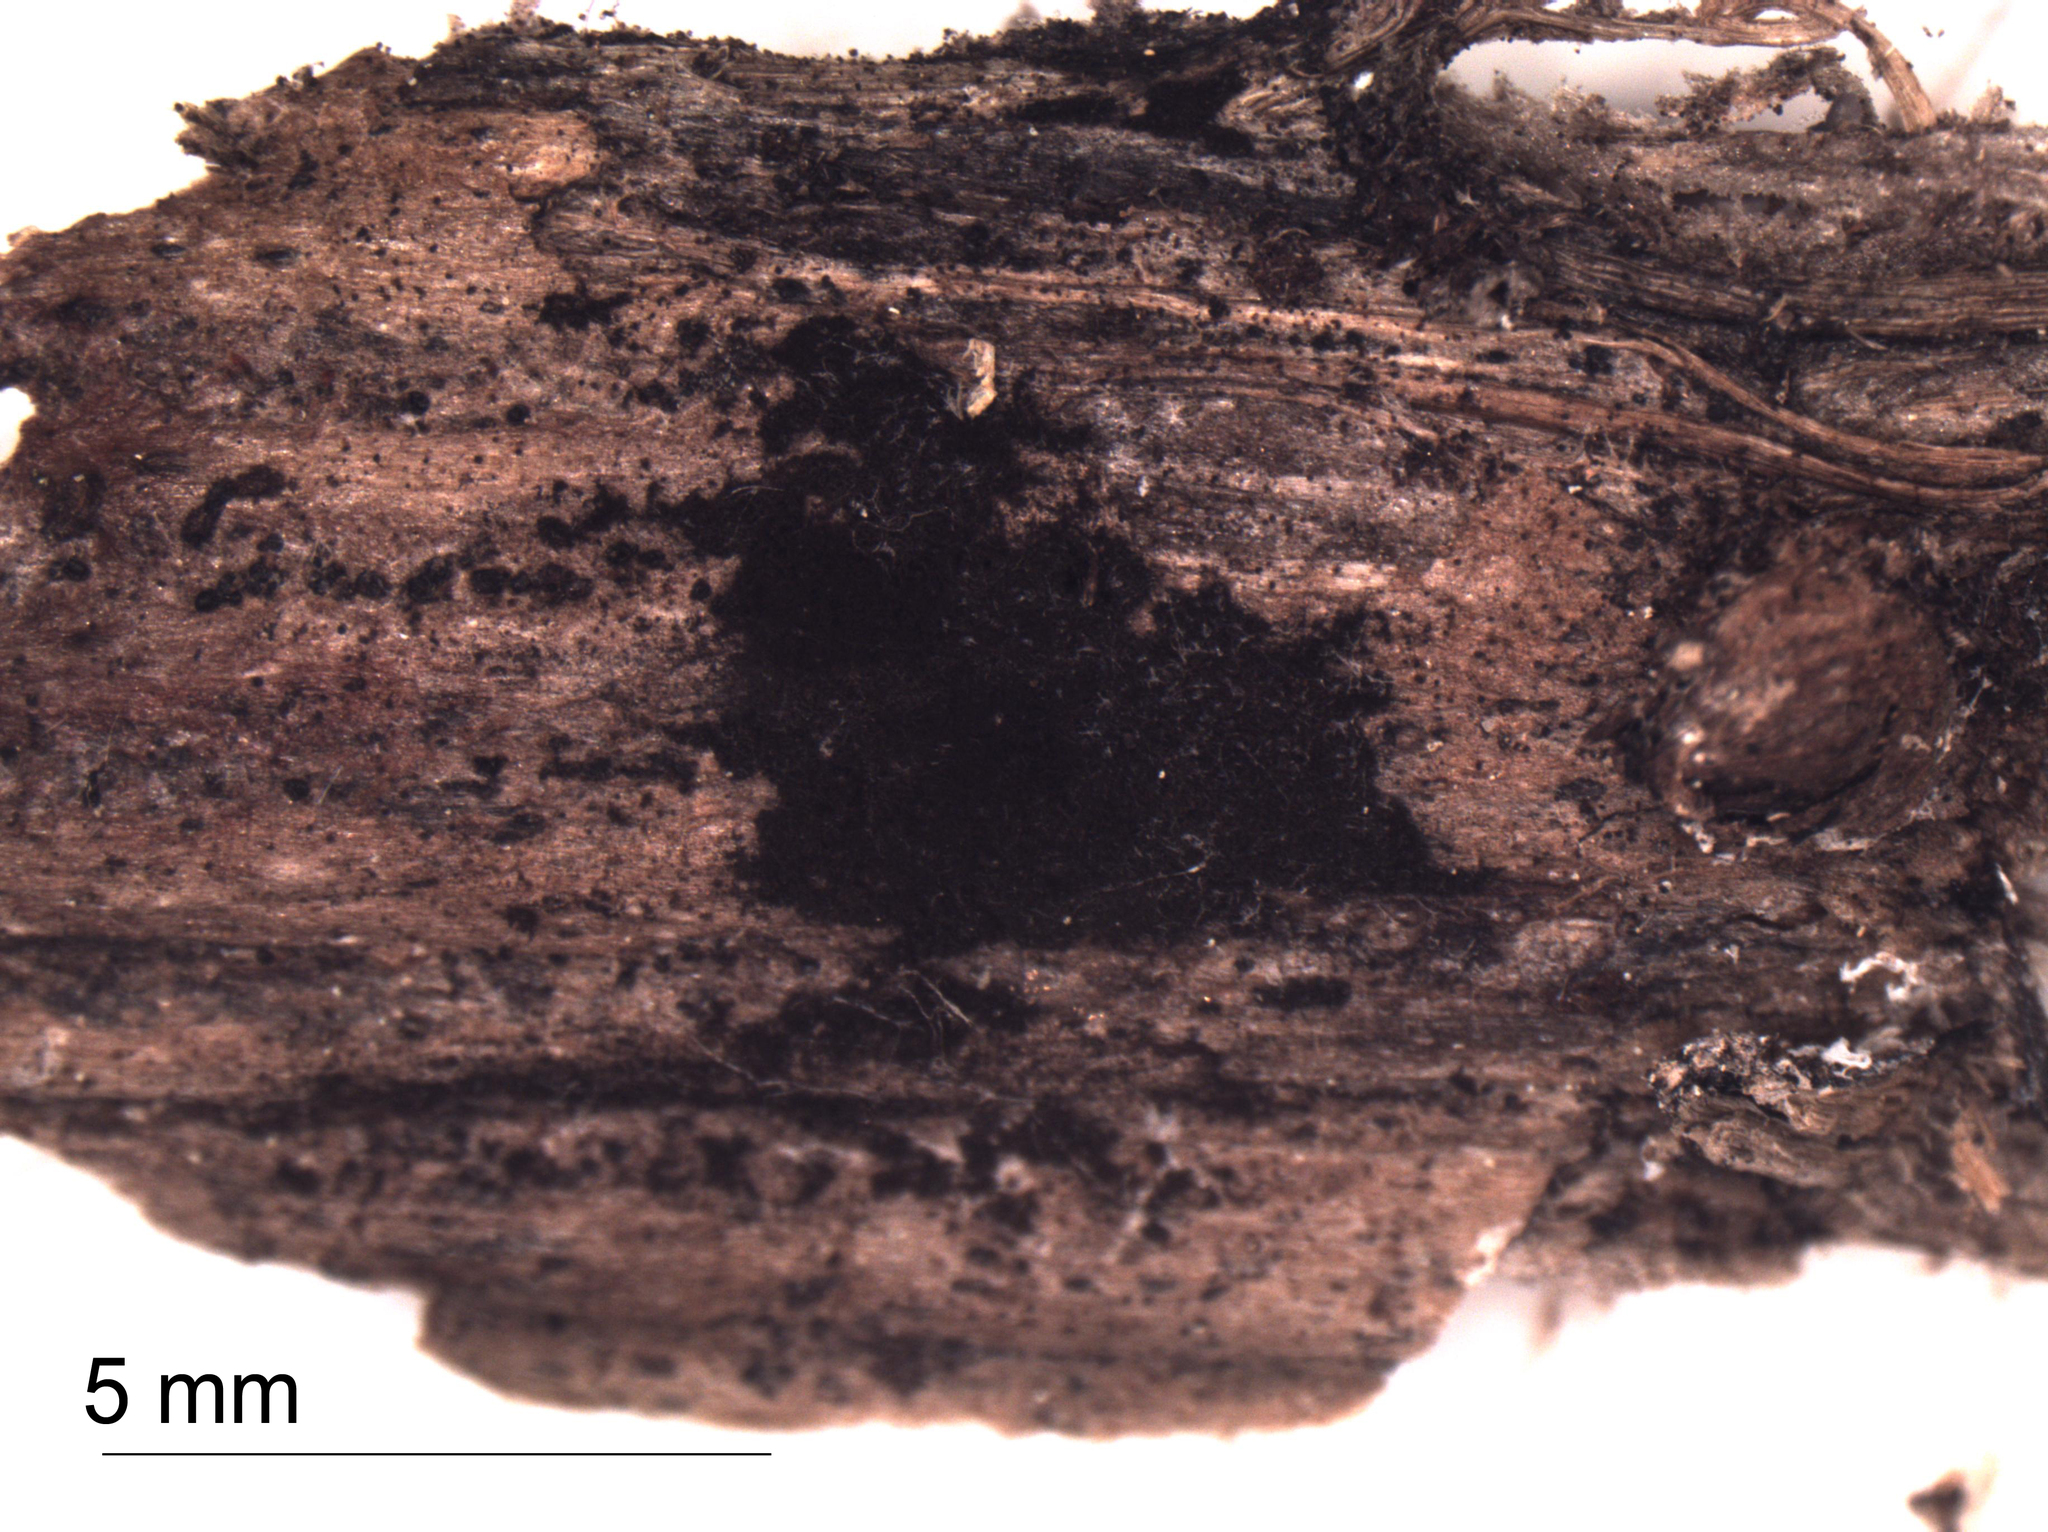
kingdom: Fungi
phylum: Ascomycota
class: Dothideomycetes
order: Pleosporales
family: Torulaceae
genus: Torula
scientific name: Torula herbarum
